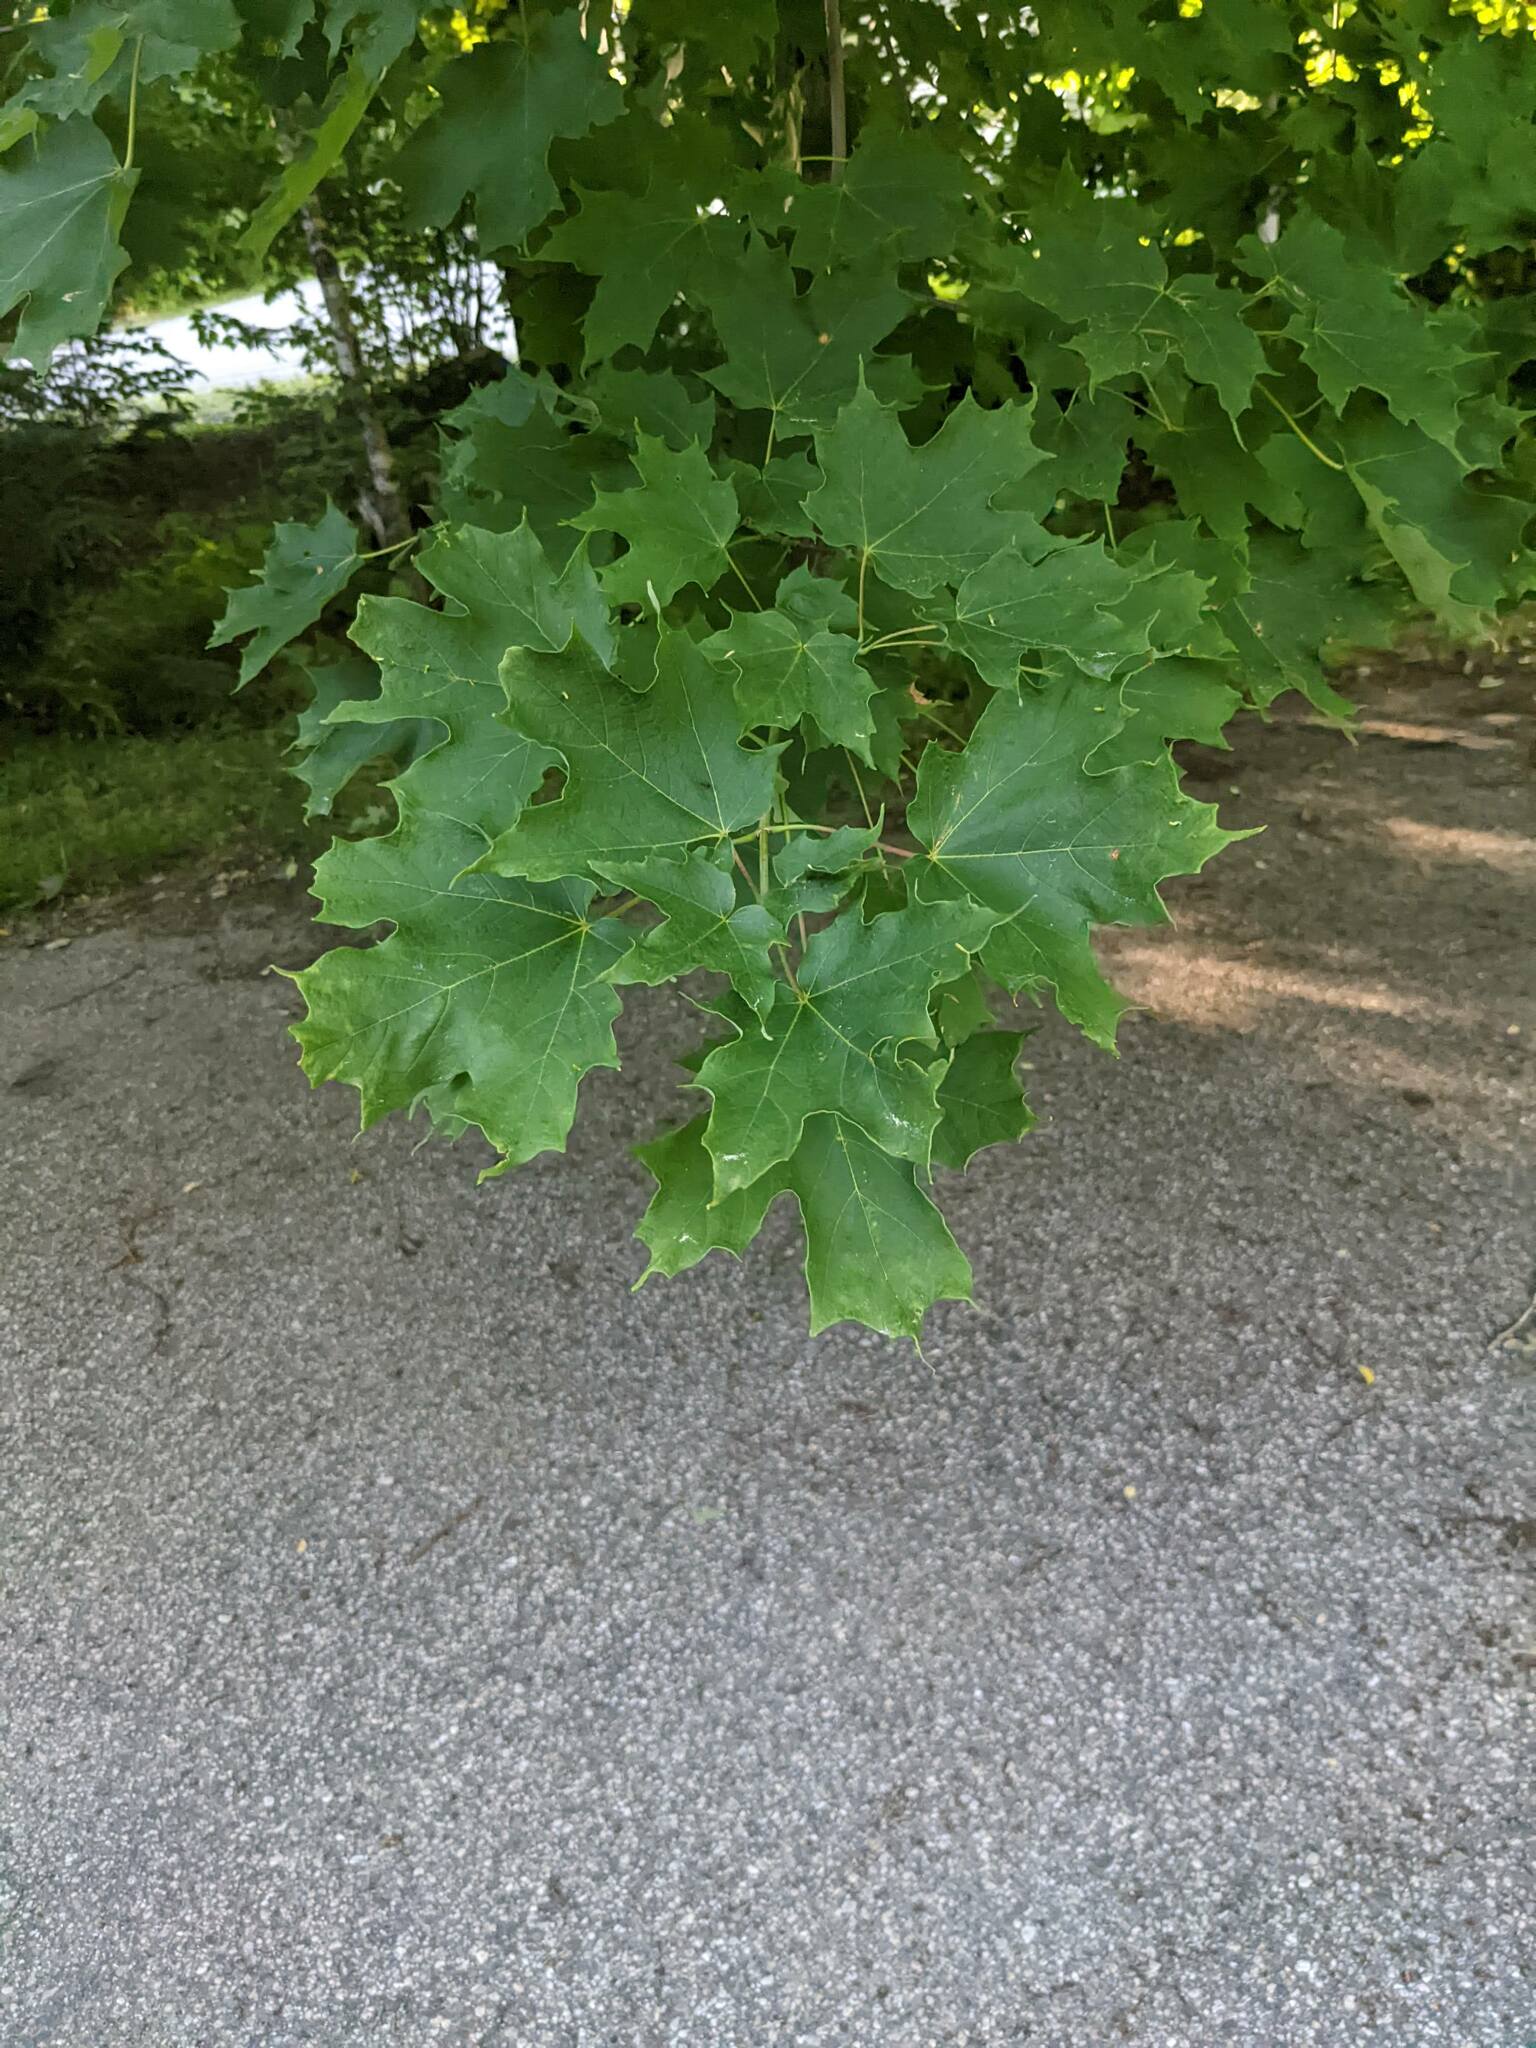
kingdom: Plantae
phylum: Tracheophyta
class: Magnoliopsida
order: Sapindales
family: Sapindaceae
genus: Acer
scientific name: Acer saccharum
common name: Sugar maple
